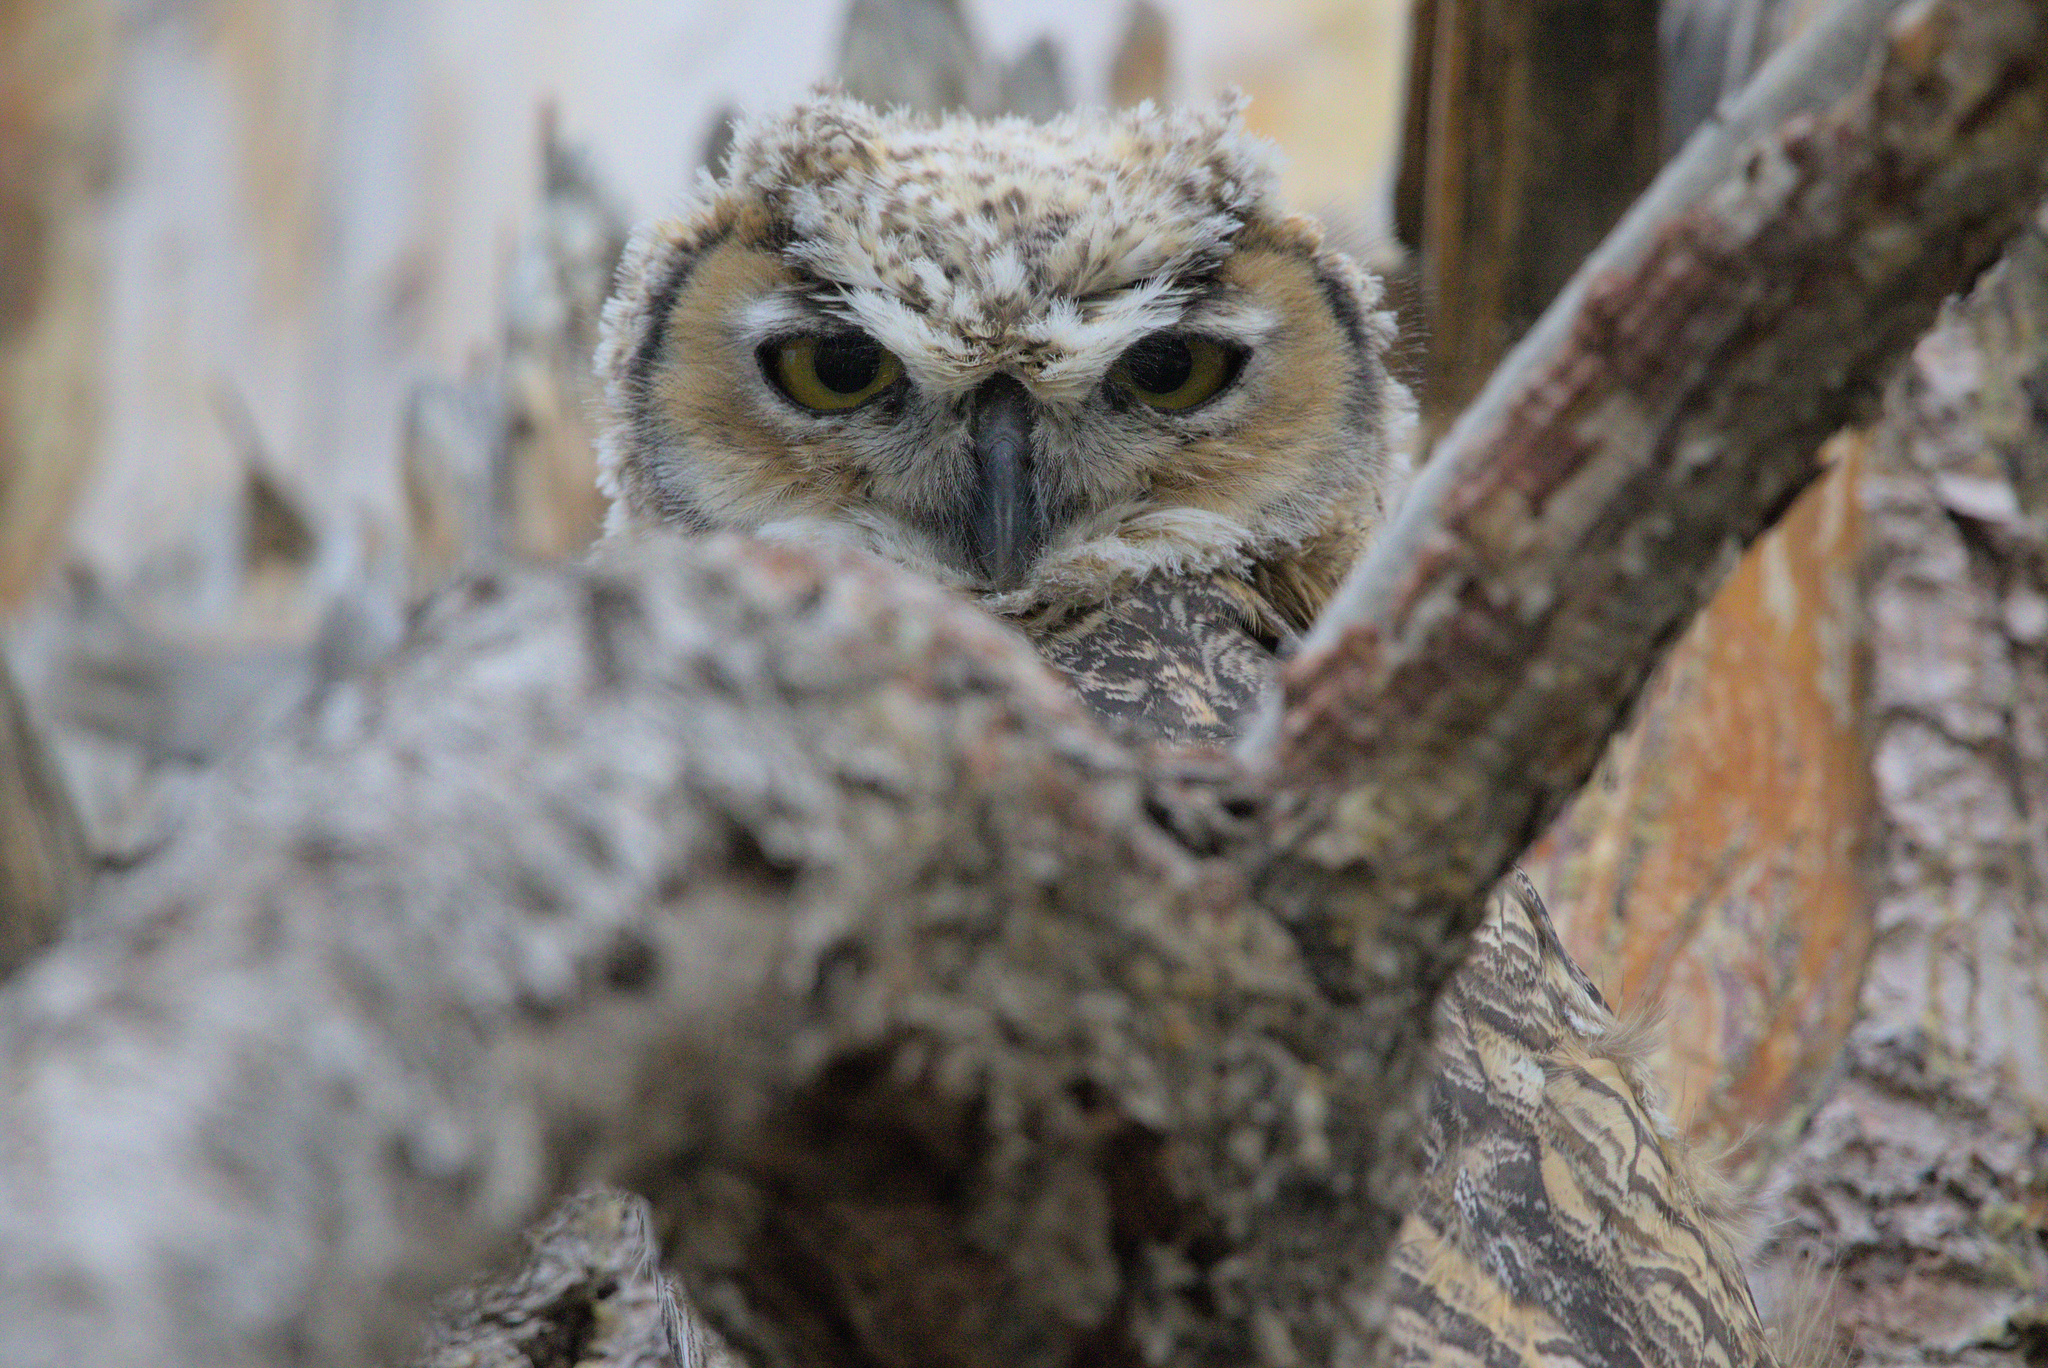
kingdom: Animalia
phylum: Chordata
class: Aves
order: Strigiformes
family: Strigidae
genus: Bubo
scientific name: Bubo virginianus
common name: Great horned owl
